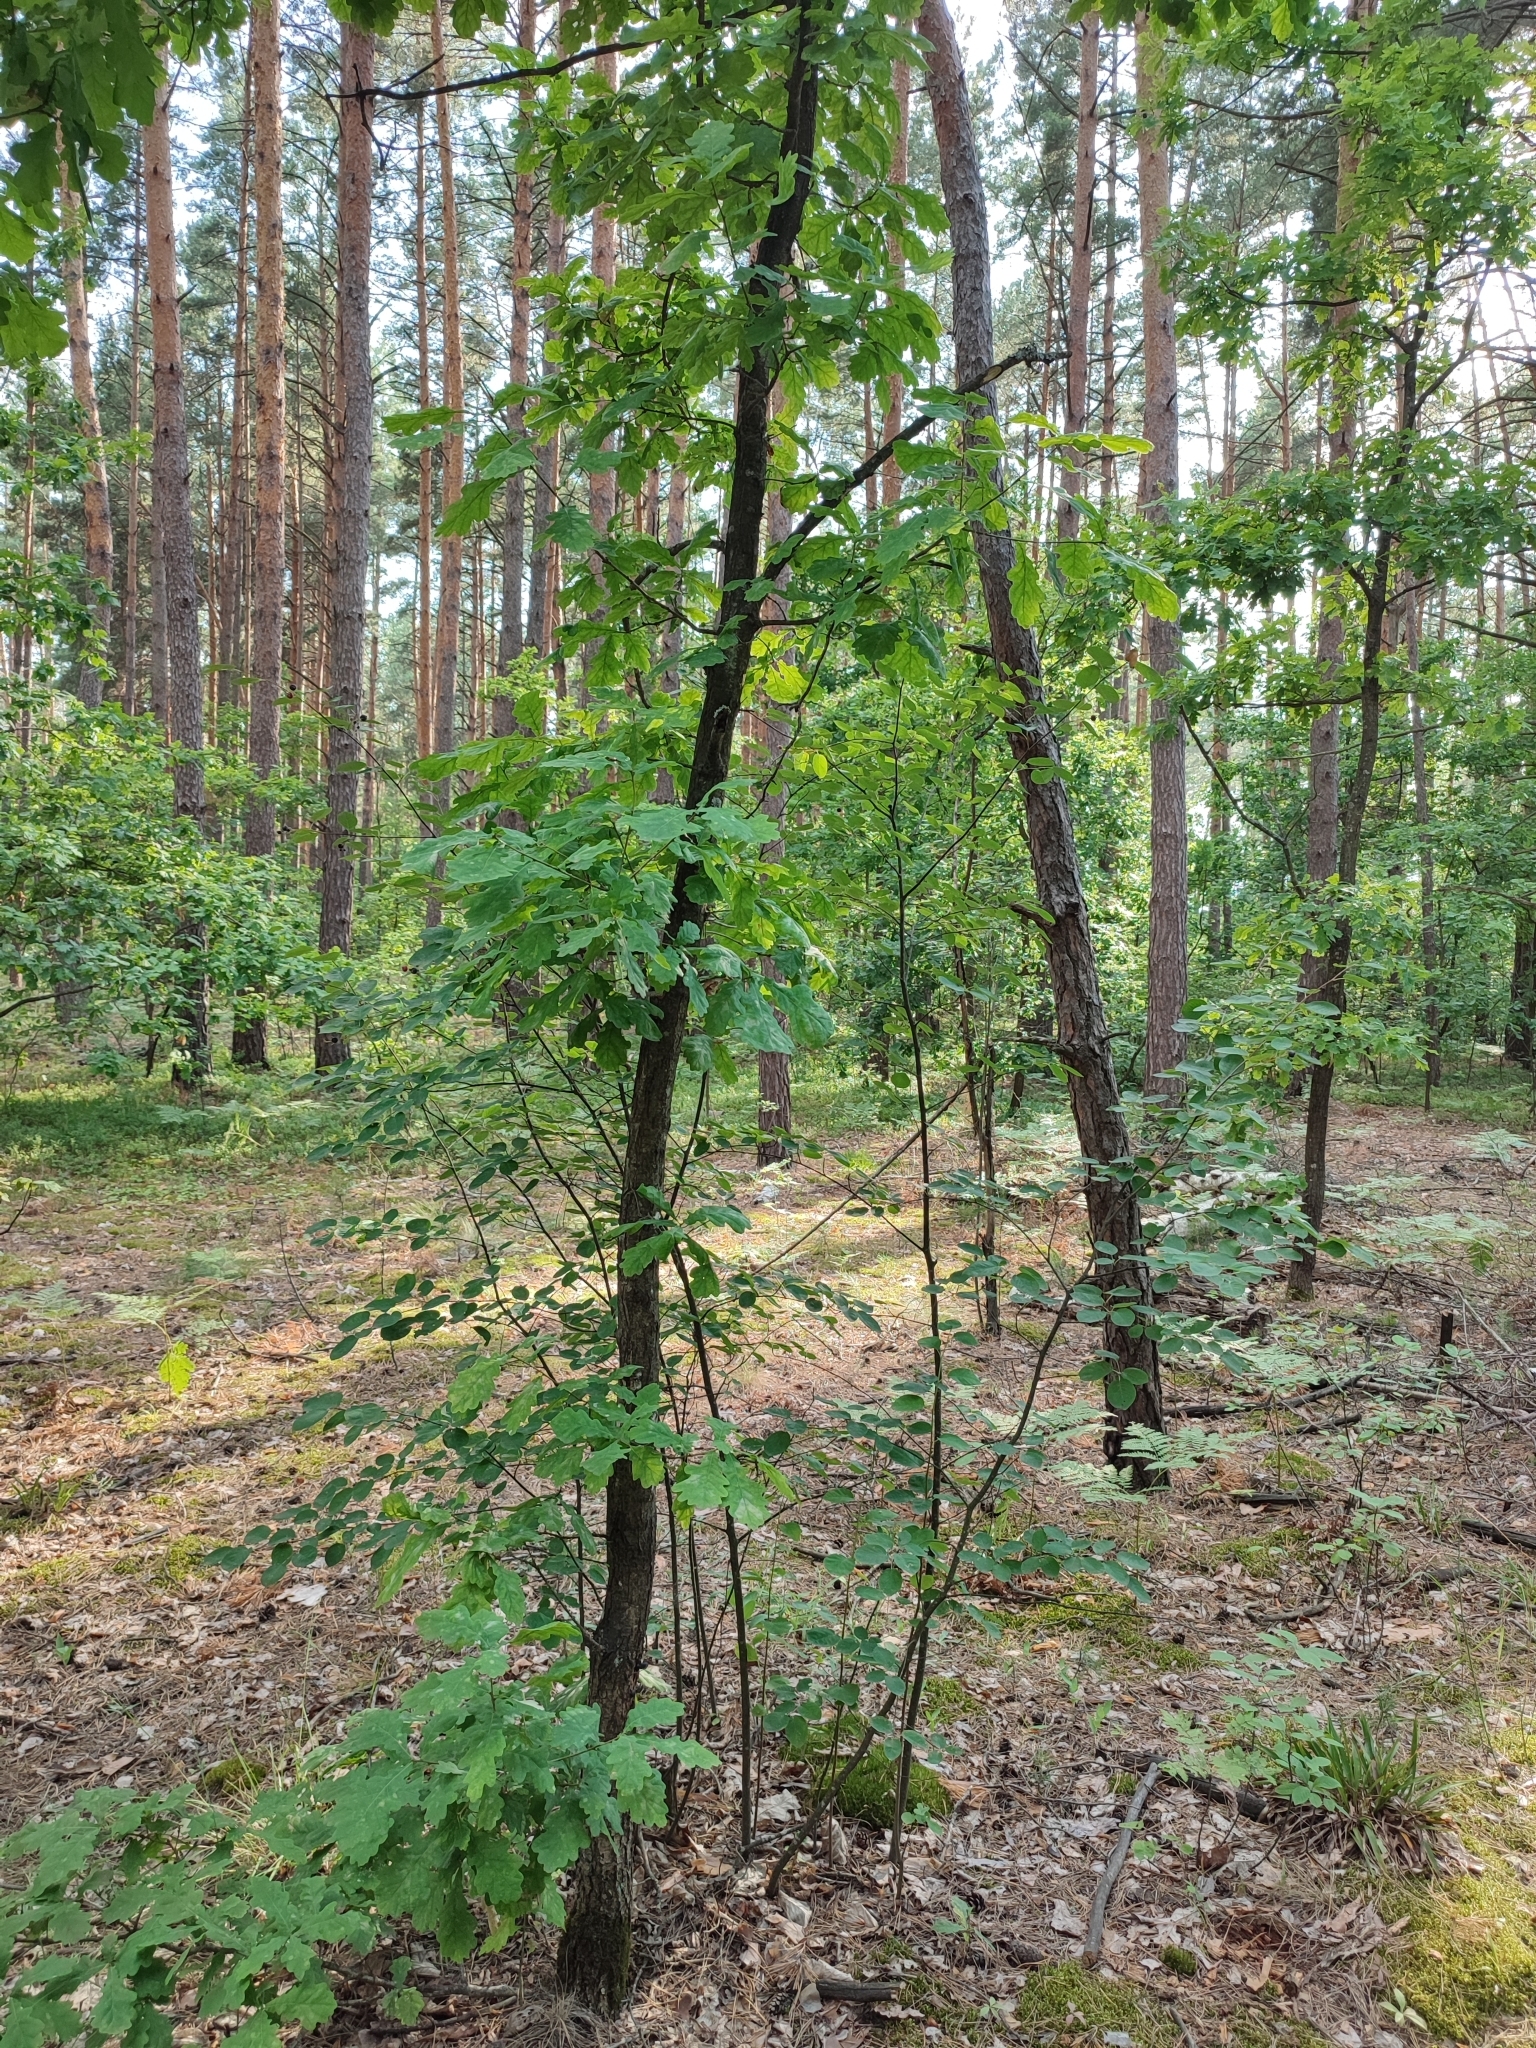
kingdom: Plantae
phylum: Tracheophyta
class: Magnoliopsida
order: Fagales
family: Fagaceae
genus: Quercus
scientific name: Quercus robur
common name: Pedunculate oak
